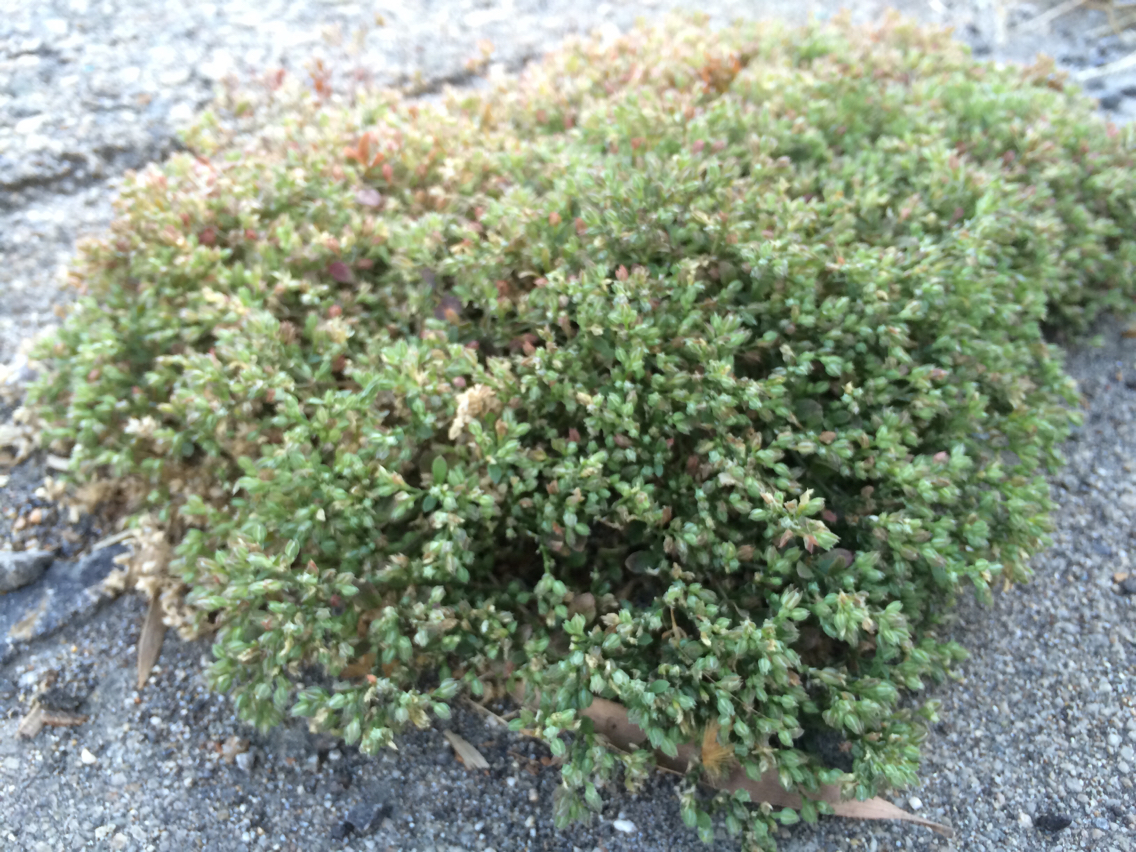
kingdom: Plantae
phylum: Tracheophyta
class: Magnoliopsida
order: Caryophyllales
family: Caryophyllaceae
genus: Polycarpon
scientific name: Polycarpon tetraphyllum
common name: Four-leaved all-seed
